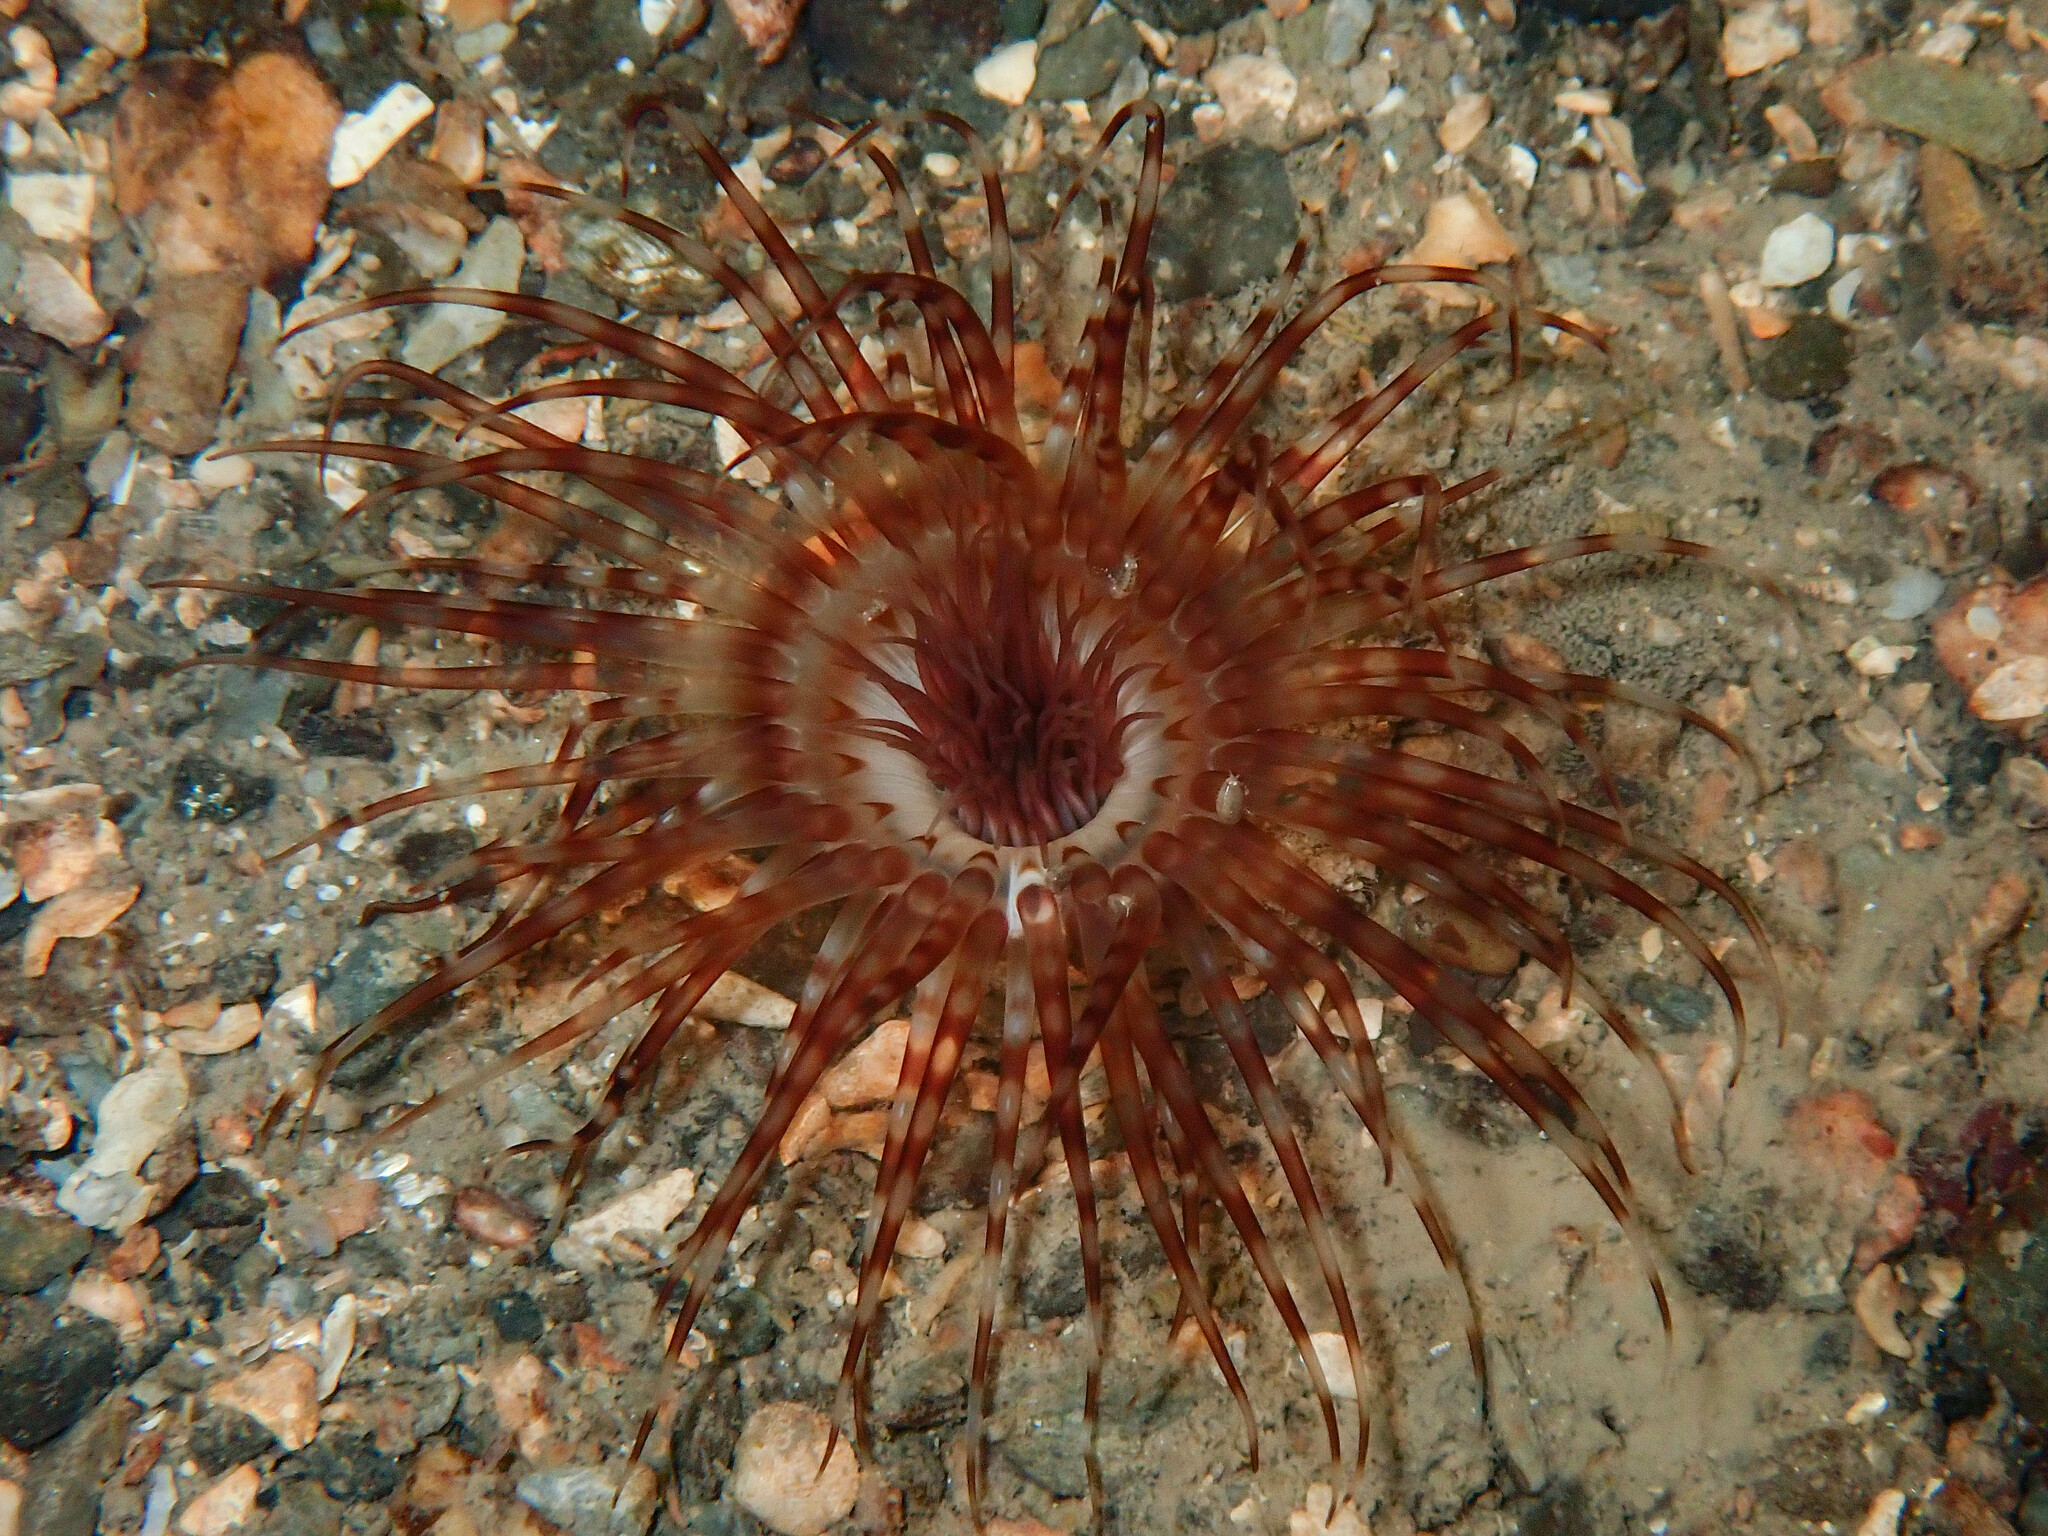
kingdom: Animalia
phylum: Cnidaria
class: Anthozoa
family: Cerianthidae
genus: Synarachnactis
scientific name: Synarachnactis
